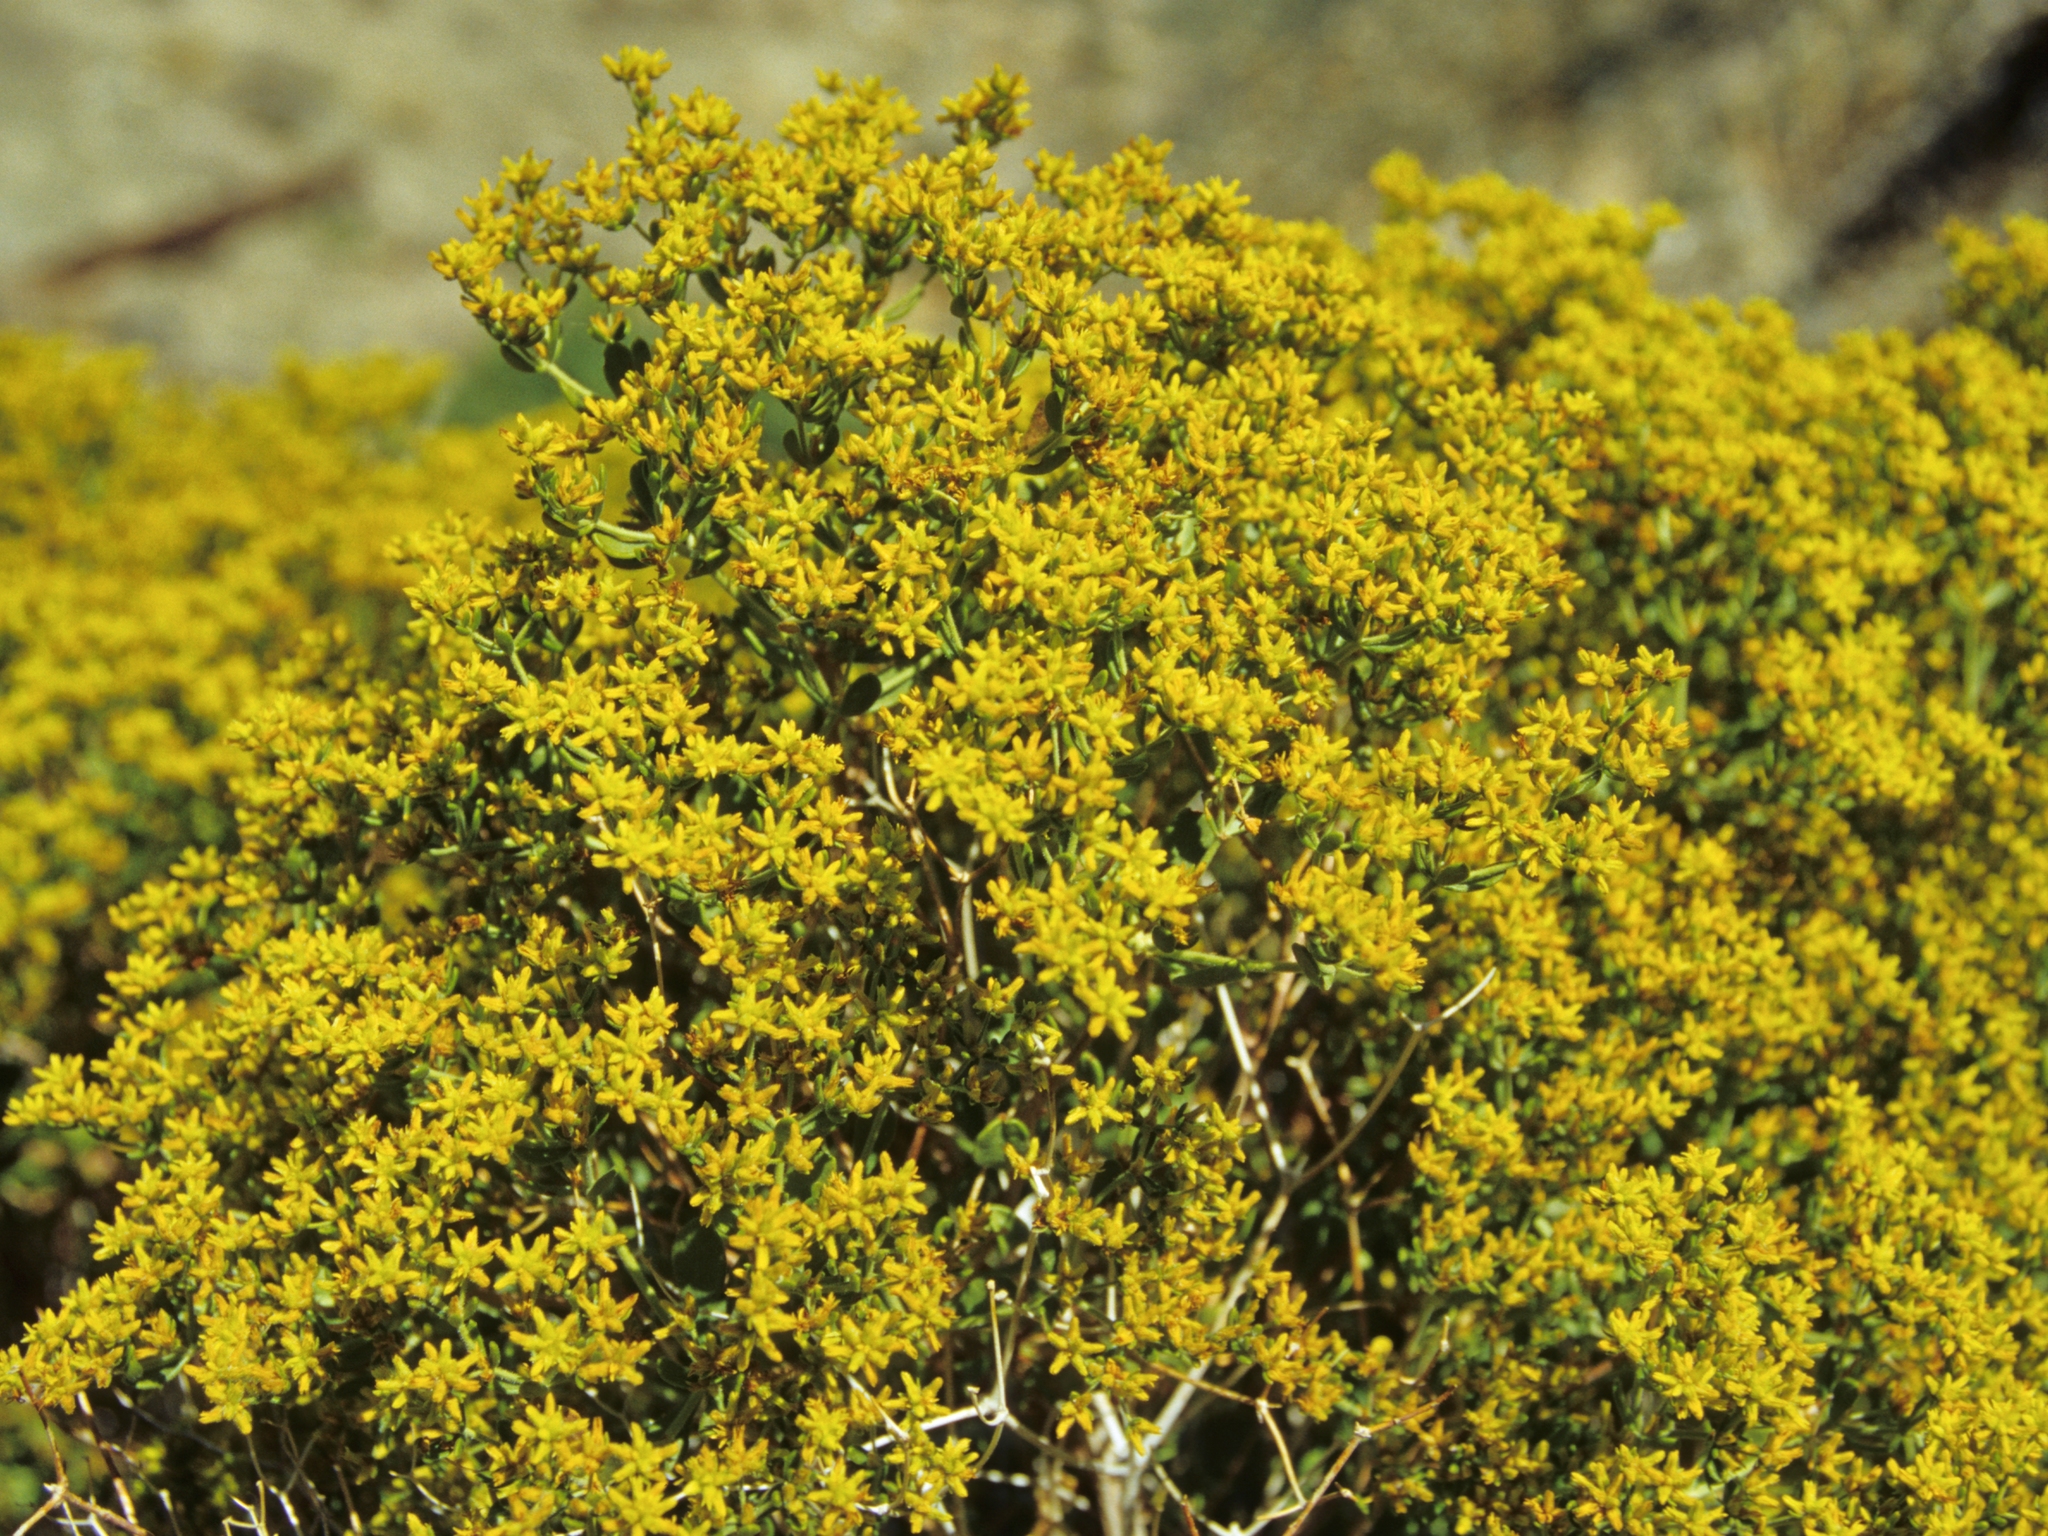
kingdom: Plantae
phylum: Tracheophyta
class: Magnoliopsida
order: Caryophyllales
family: Polygonaceae
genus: Dedeckera
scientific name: Dedeckera eurekensis
